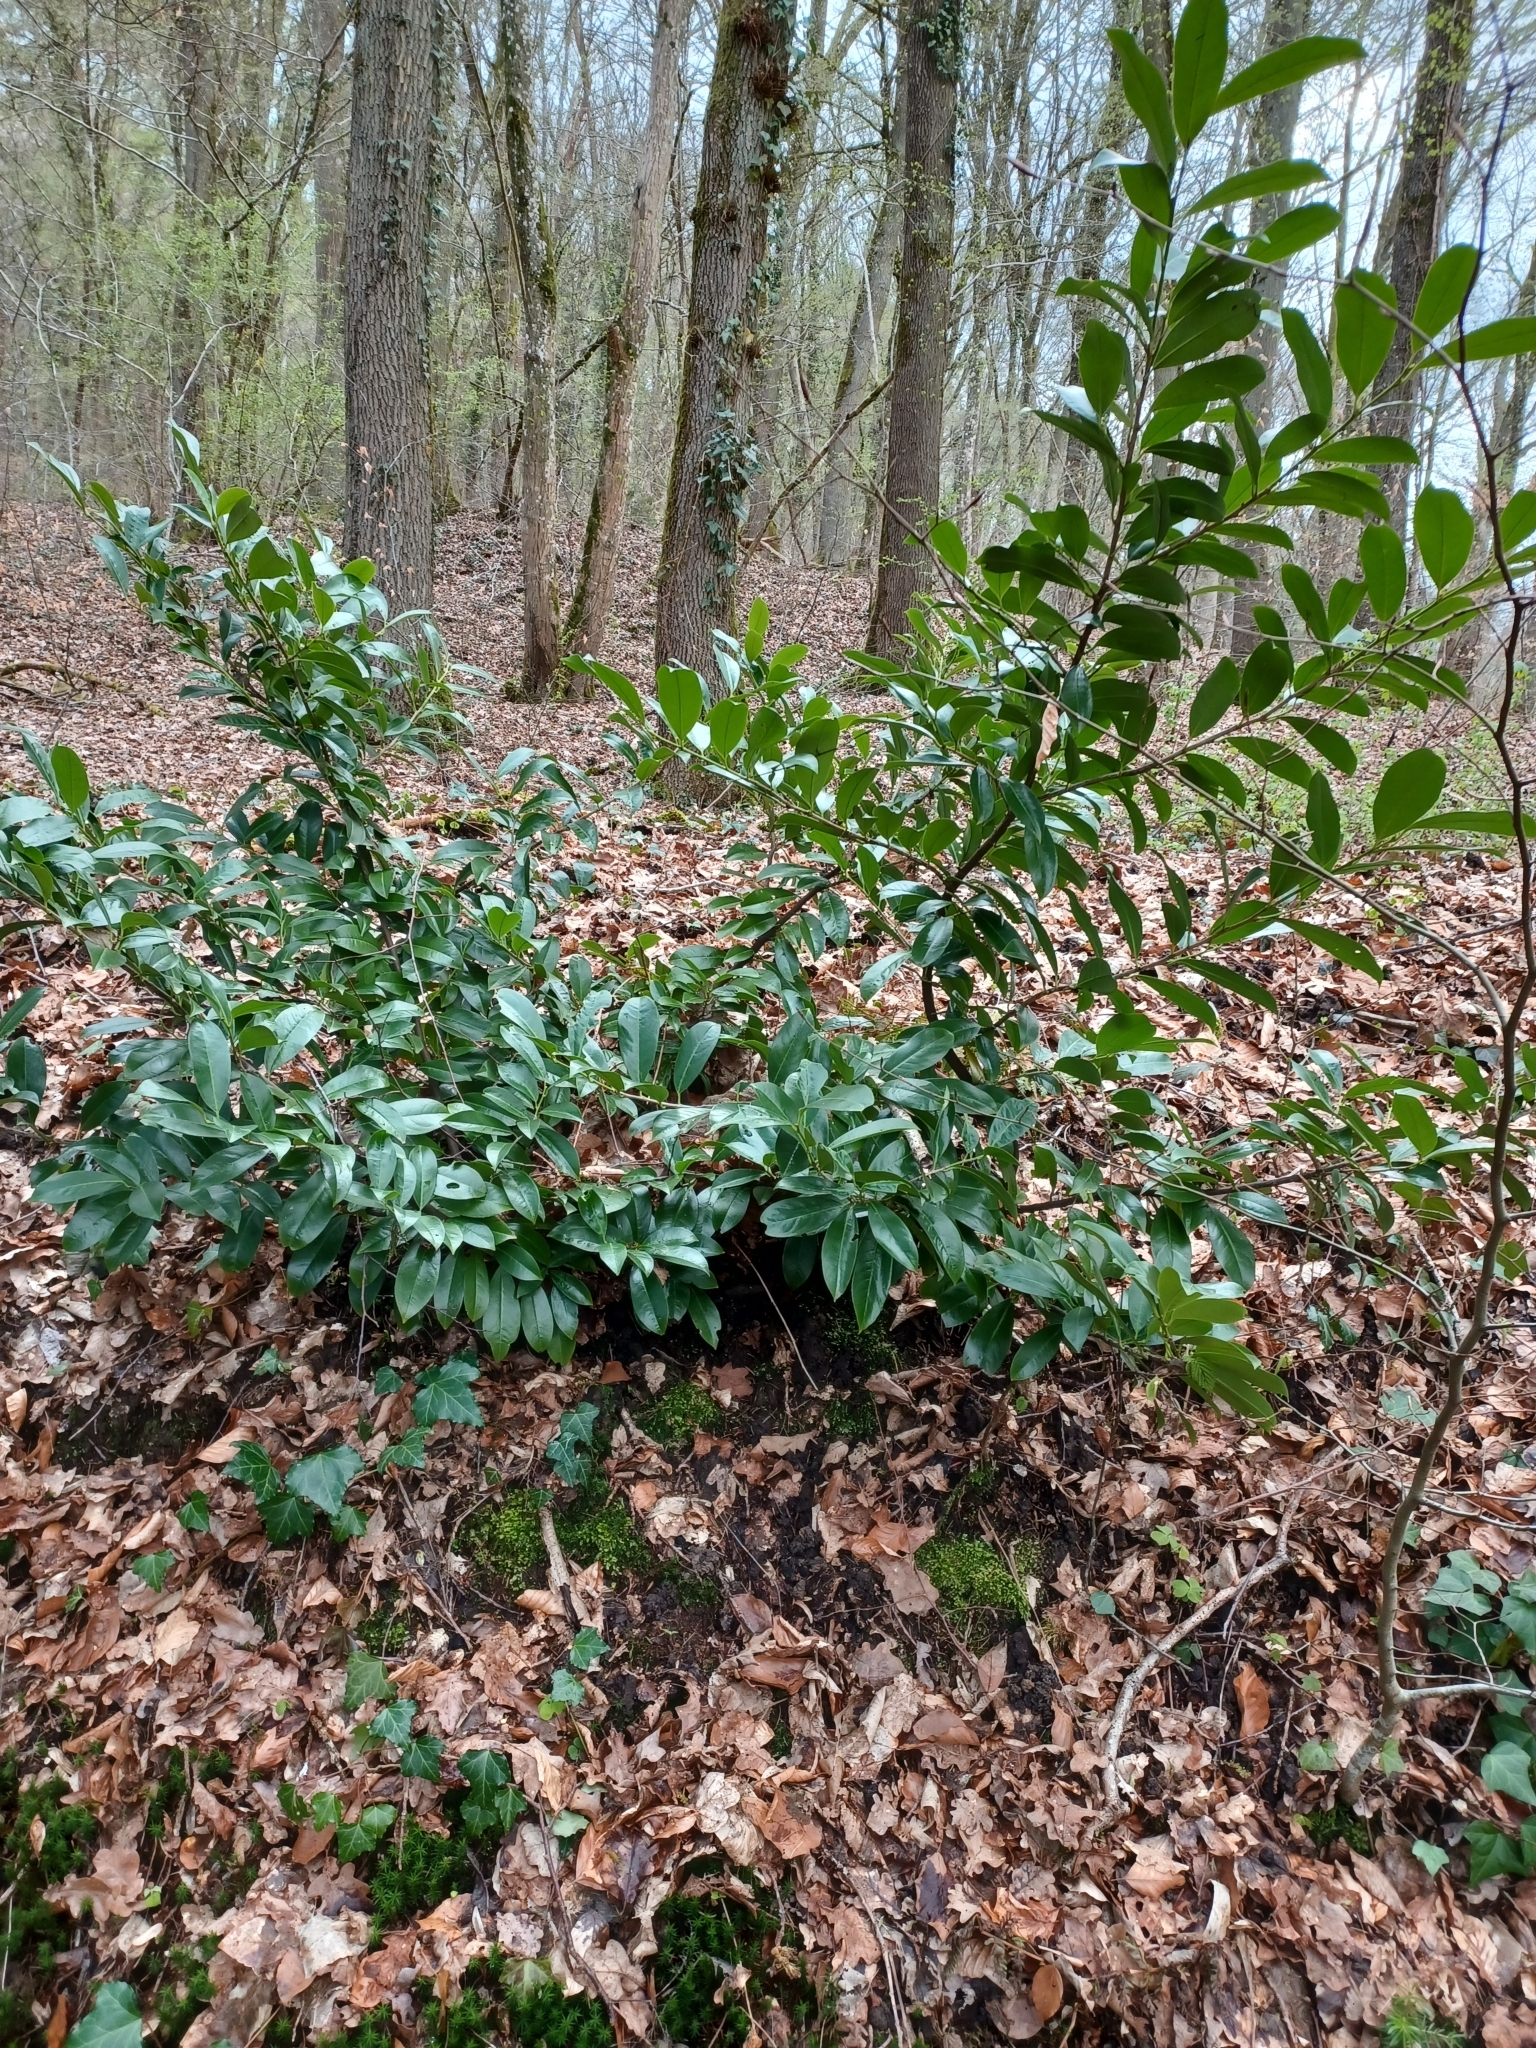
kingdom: Plantae
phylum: Tracheophyta
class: Magnoliopsida
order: Rosales
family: Rosaceae
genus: Prunus
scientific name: Prunus laurocerasus
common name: Cherry laurel
